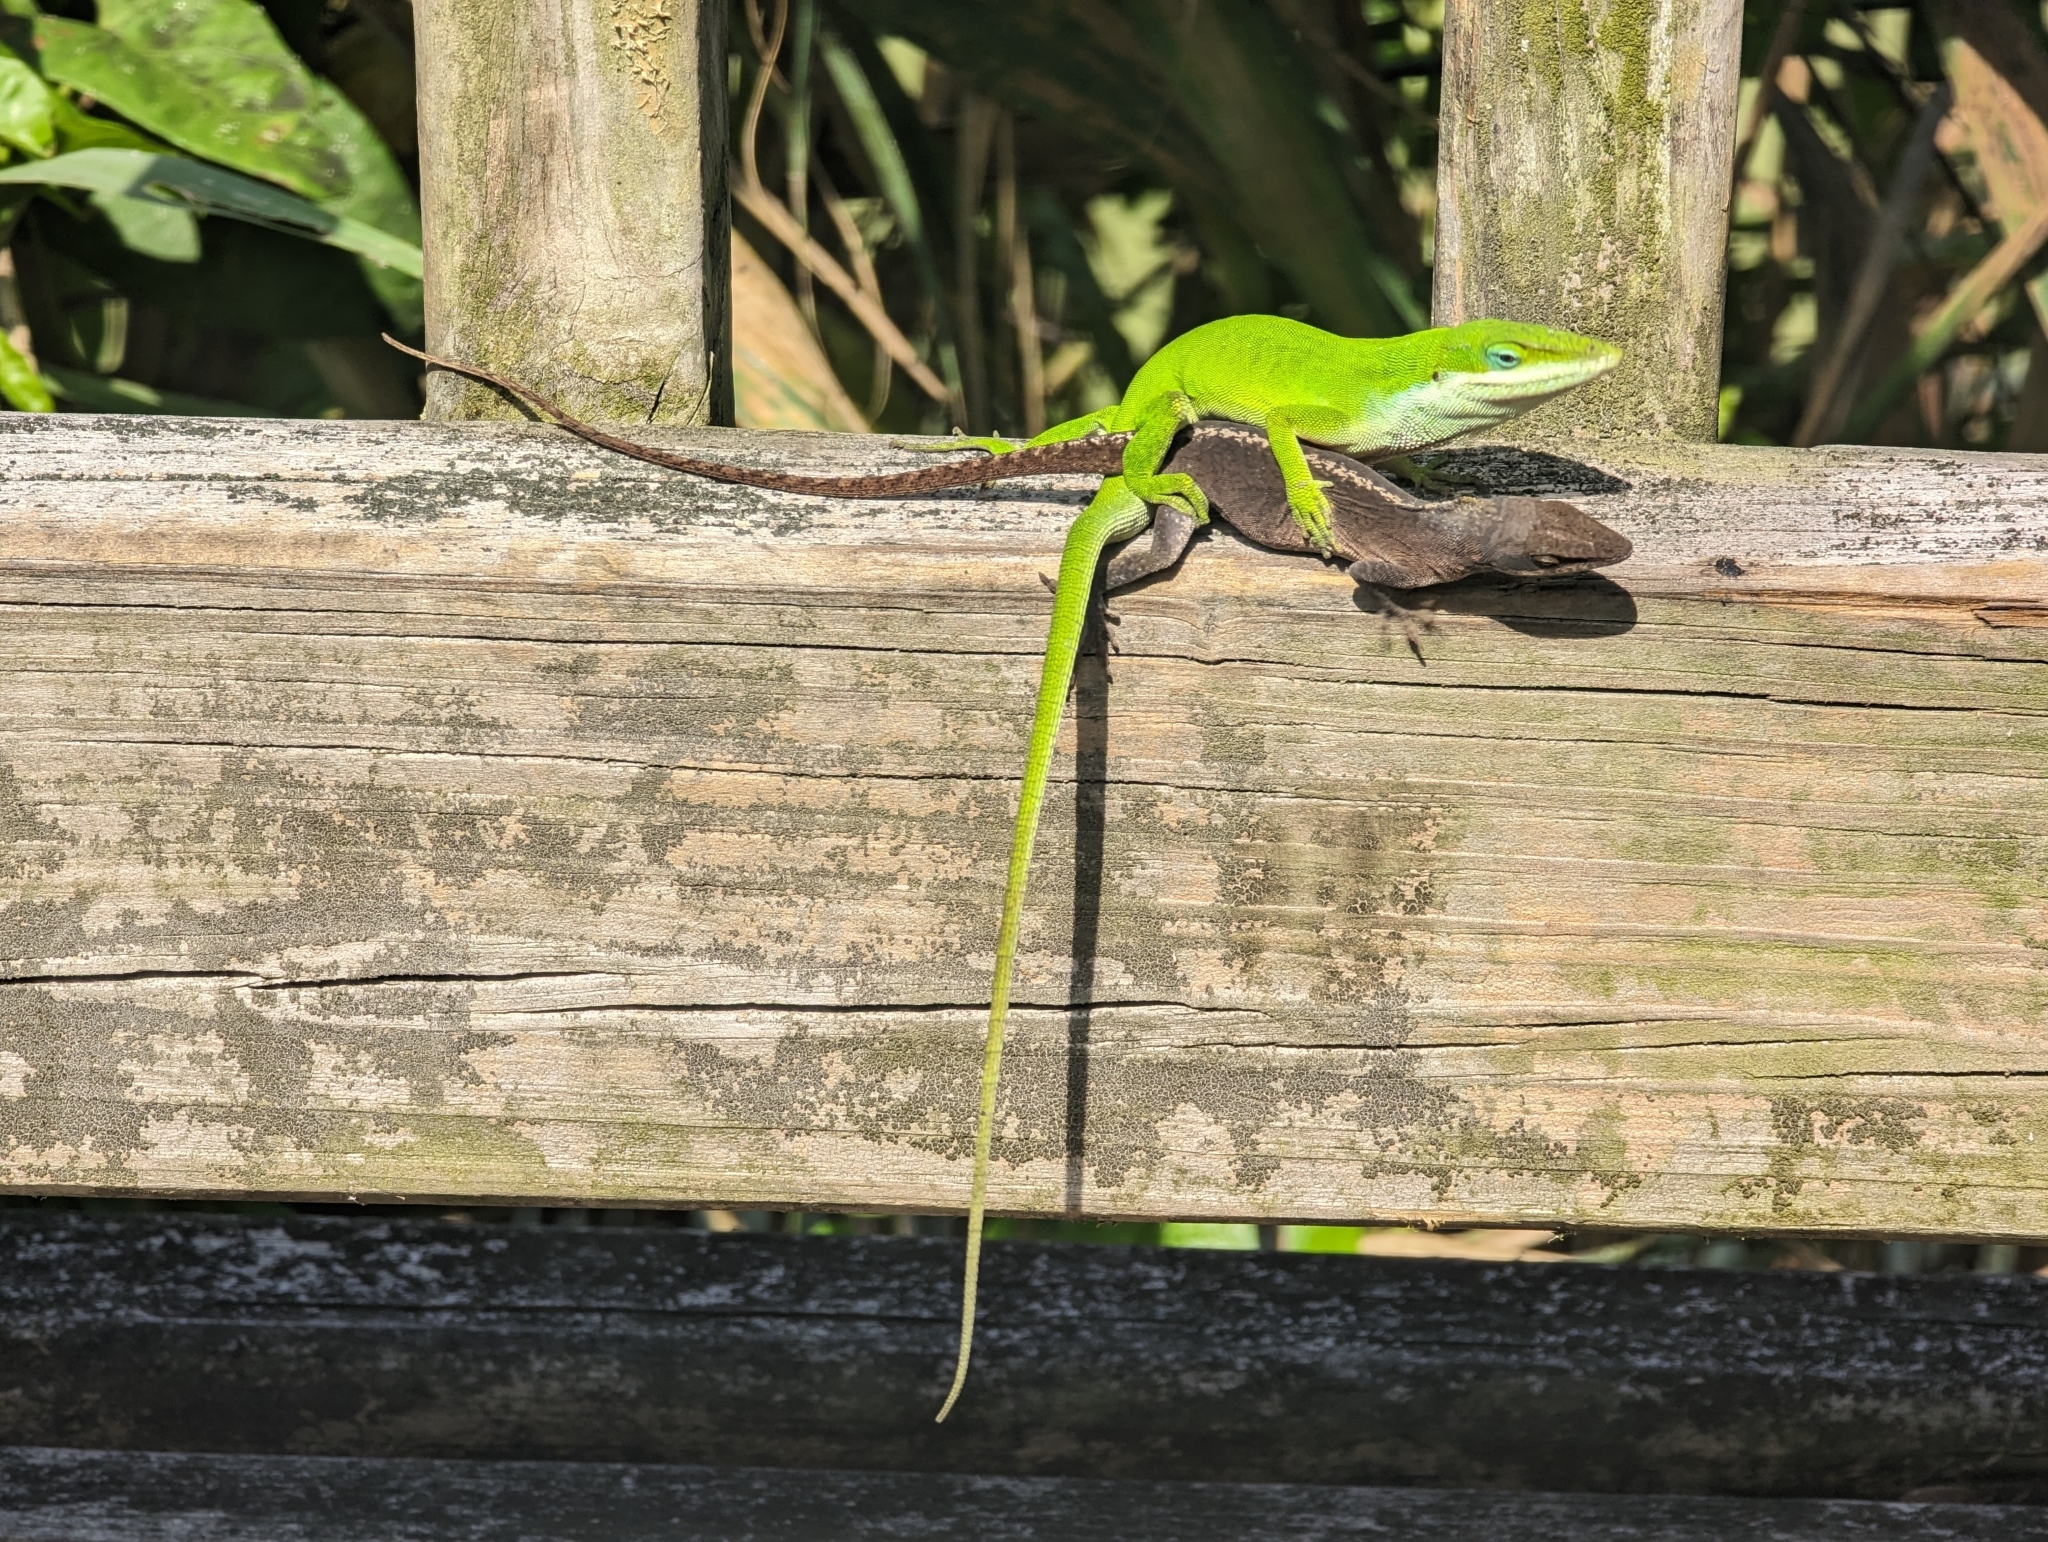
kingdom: Animalia
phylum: Chordata
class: Squamata
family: Dactyloidae
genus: Anolis
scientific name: Anolis carolinensis
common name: Green anole
